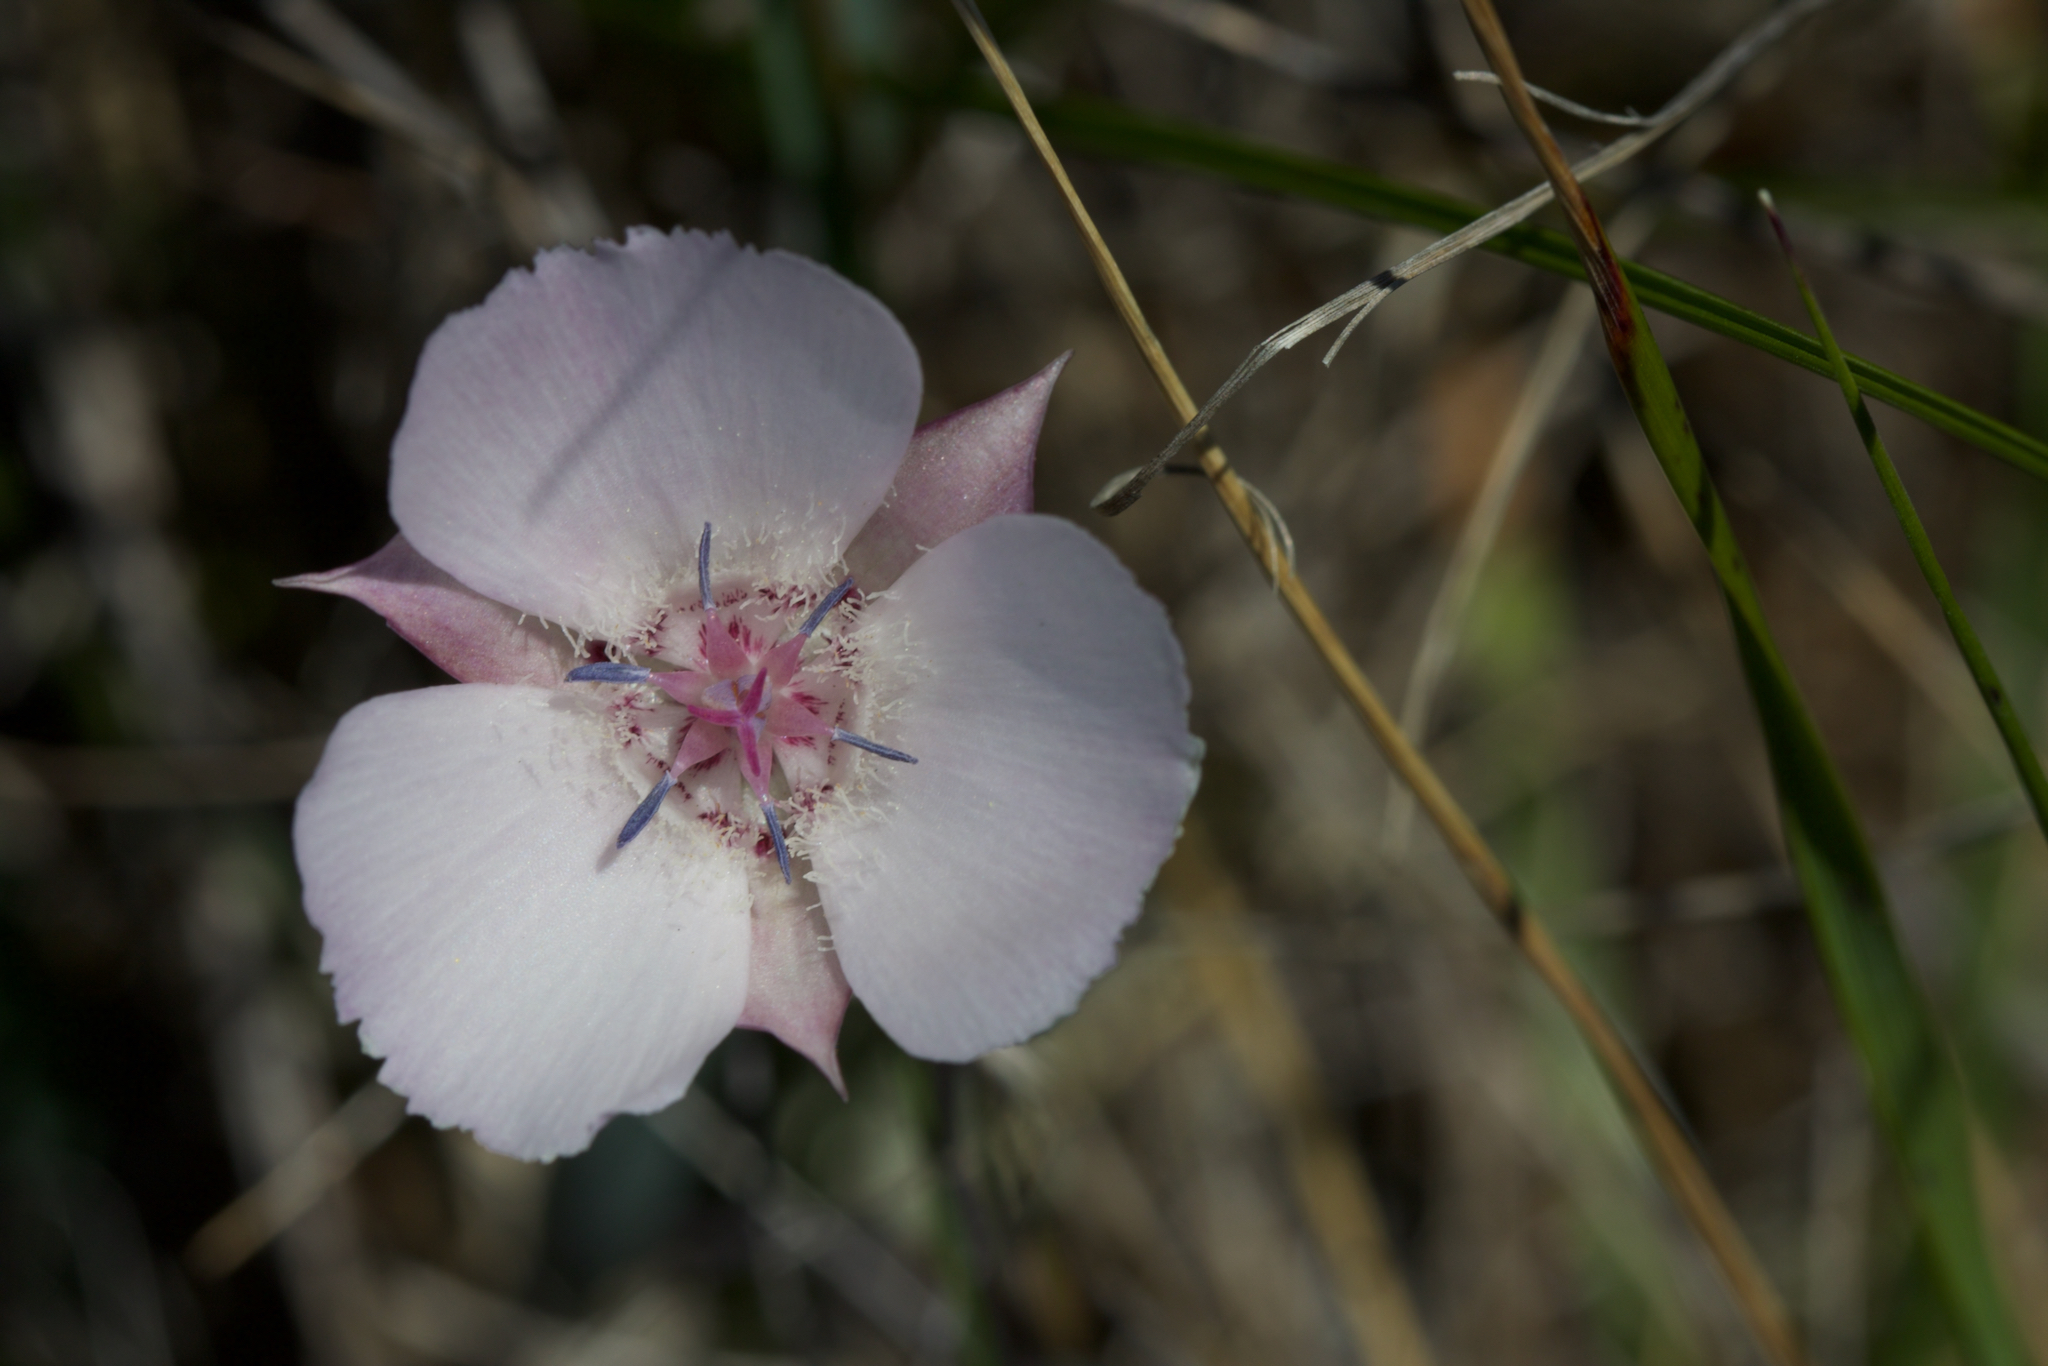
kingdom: Plantae
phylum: Tracheophyta
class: Liliopsida
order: Liliales
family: Liliaceae
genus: Calochortus
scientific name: Calochortus umbellatus
